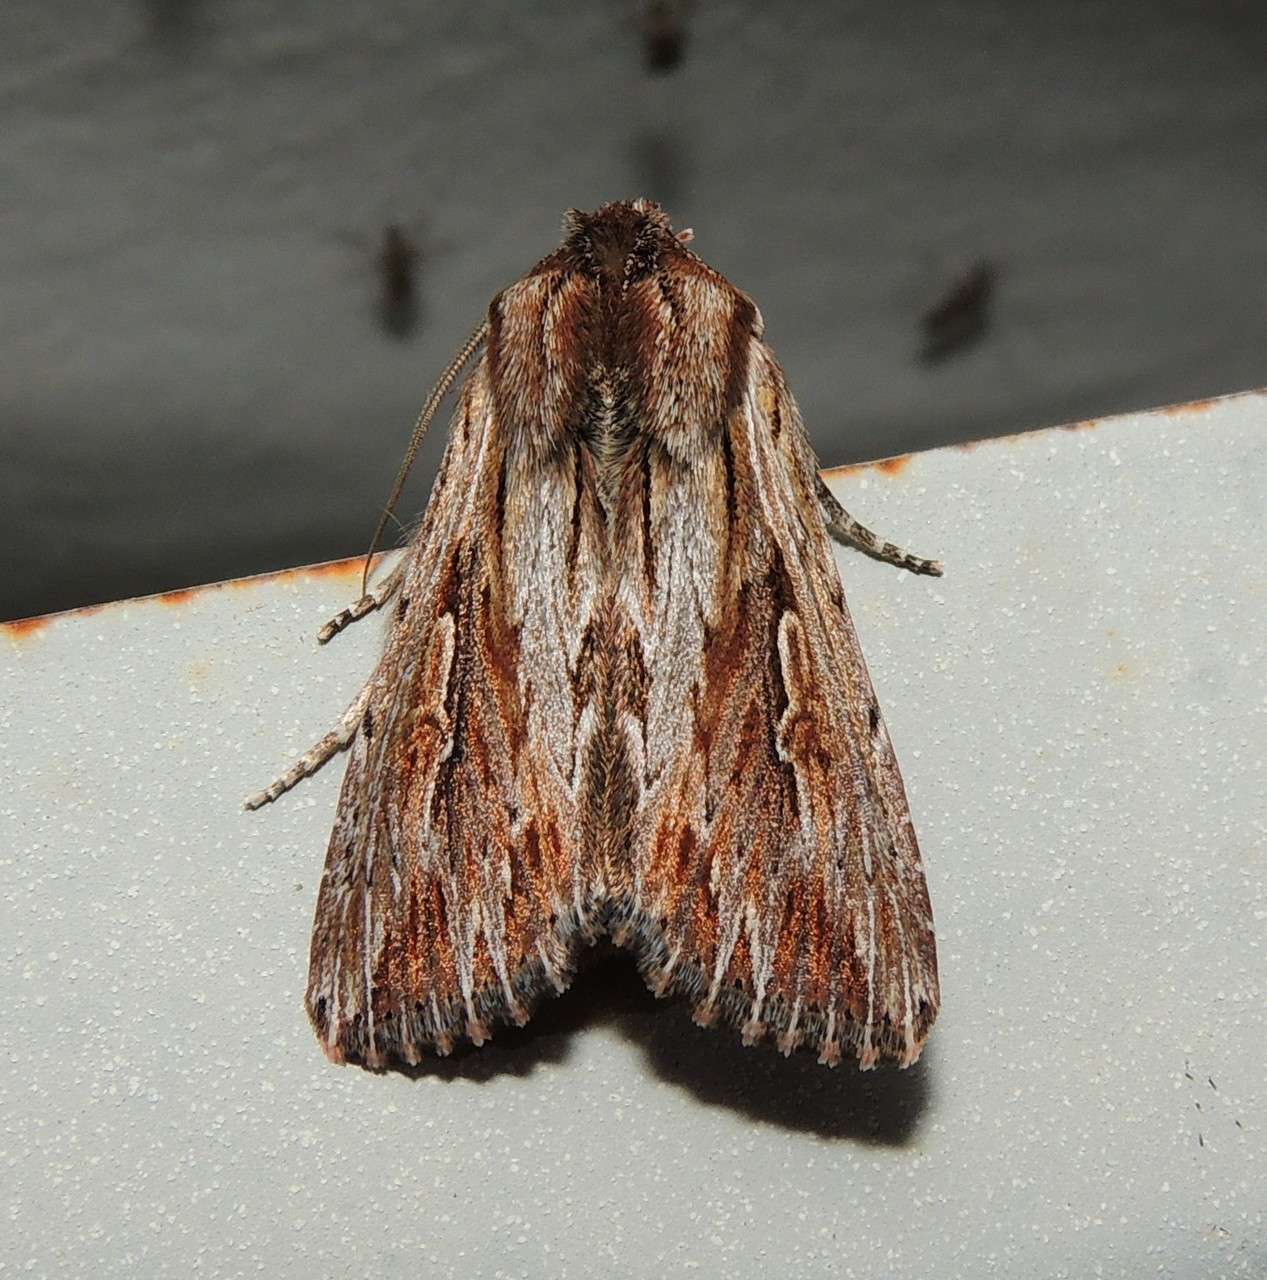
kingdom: Animalia
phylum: Arthropoda
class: Insecta
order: Lepidoptera
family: Noctuidae
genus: Persectania
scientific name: Persectania ewingii
